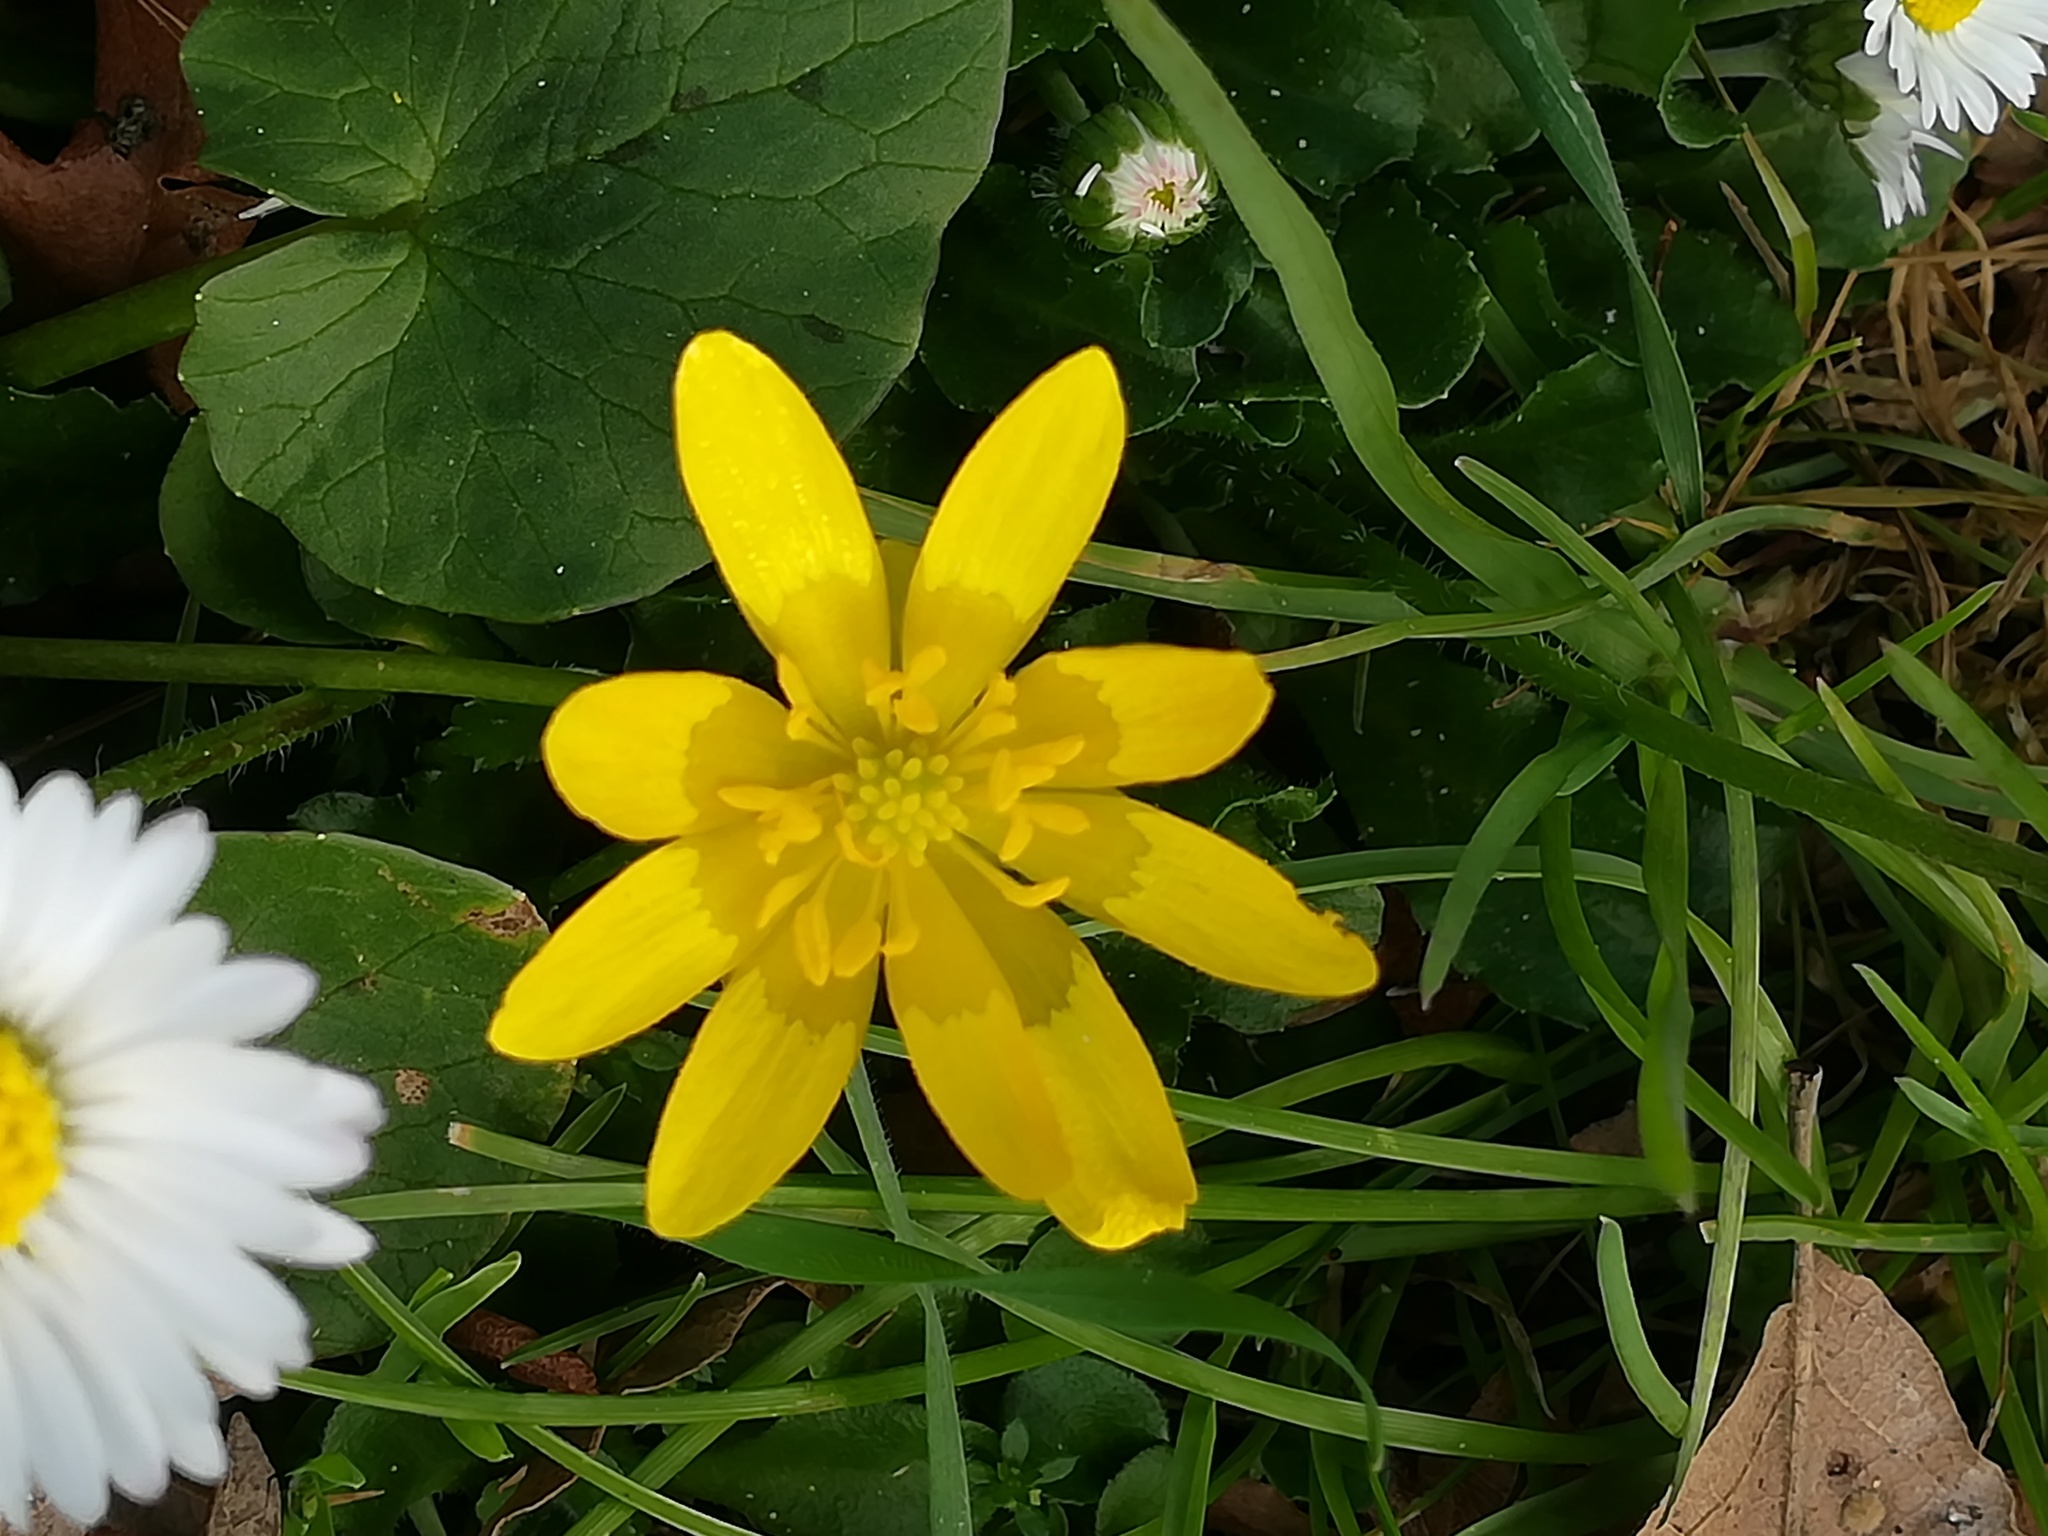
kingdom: Plantae
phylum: Tracheophyta
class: Magnoliopsida
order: Ranunculales
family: Ranunculaceae
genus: Ficaria
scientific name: Ficaria verna
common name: Lesser celandine
